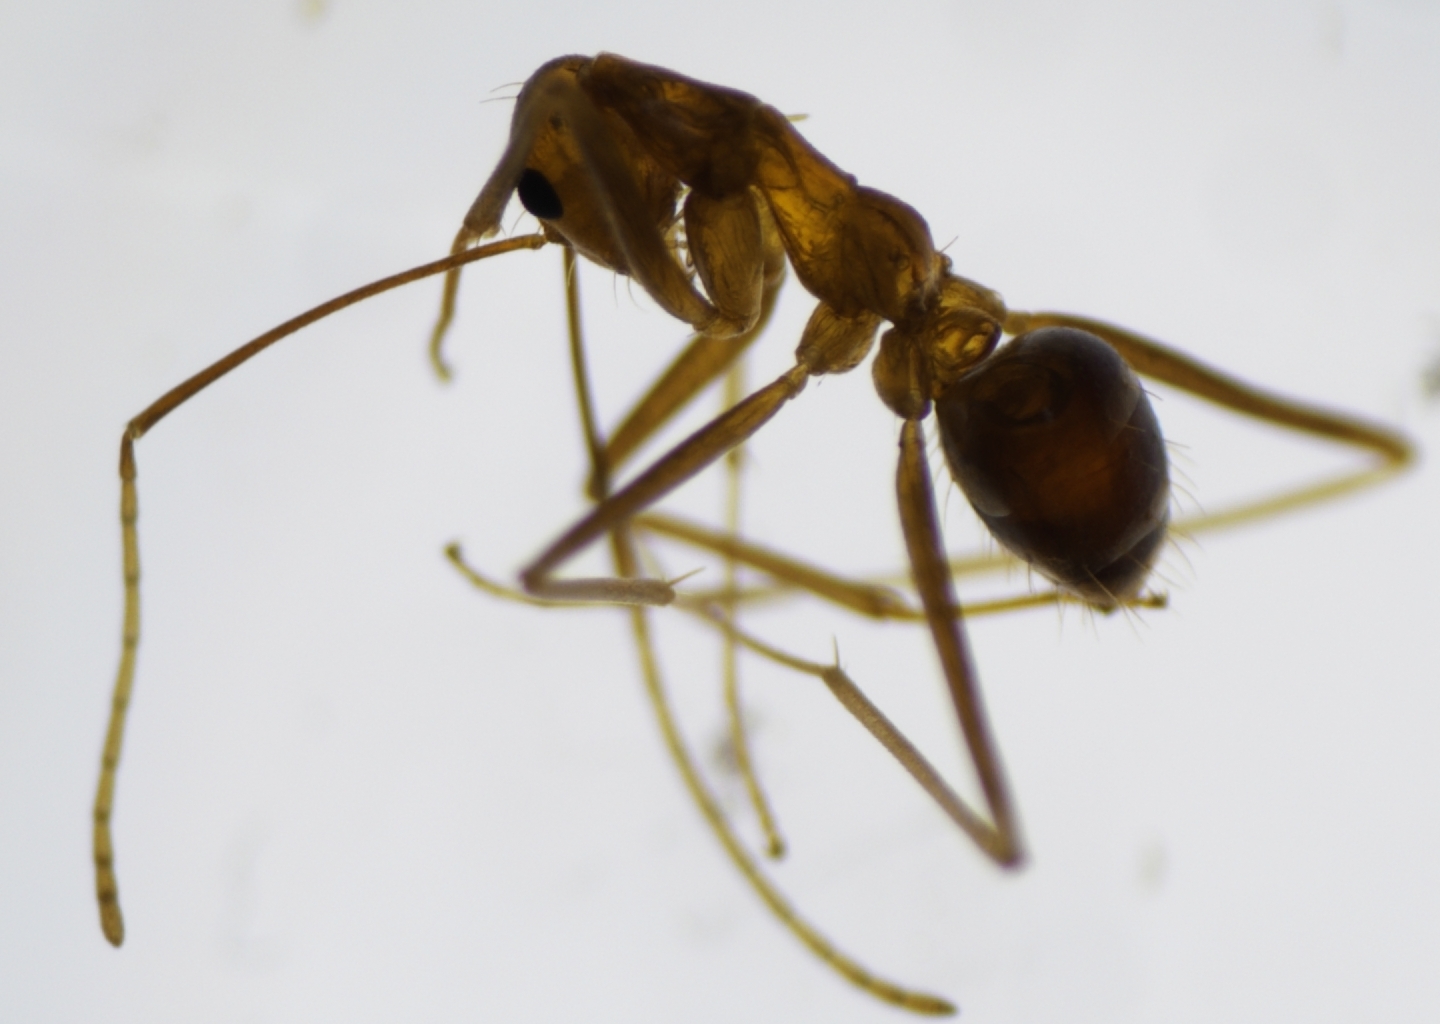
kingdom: Animalia
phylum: Arthropoda
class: Insecta
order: Hymenoptera
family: Formicidae
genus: Anoplolepis
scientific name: Anoplolepis gracilipes
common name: Ant
